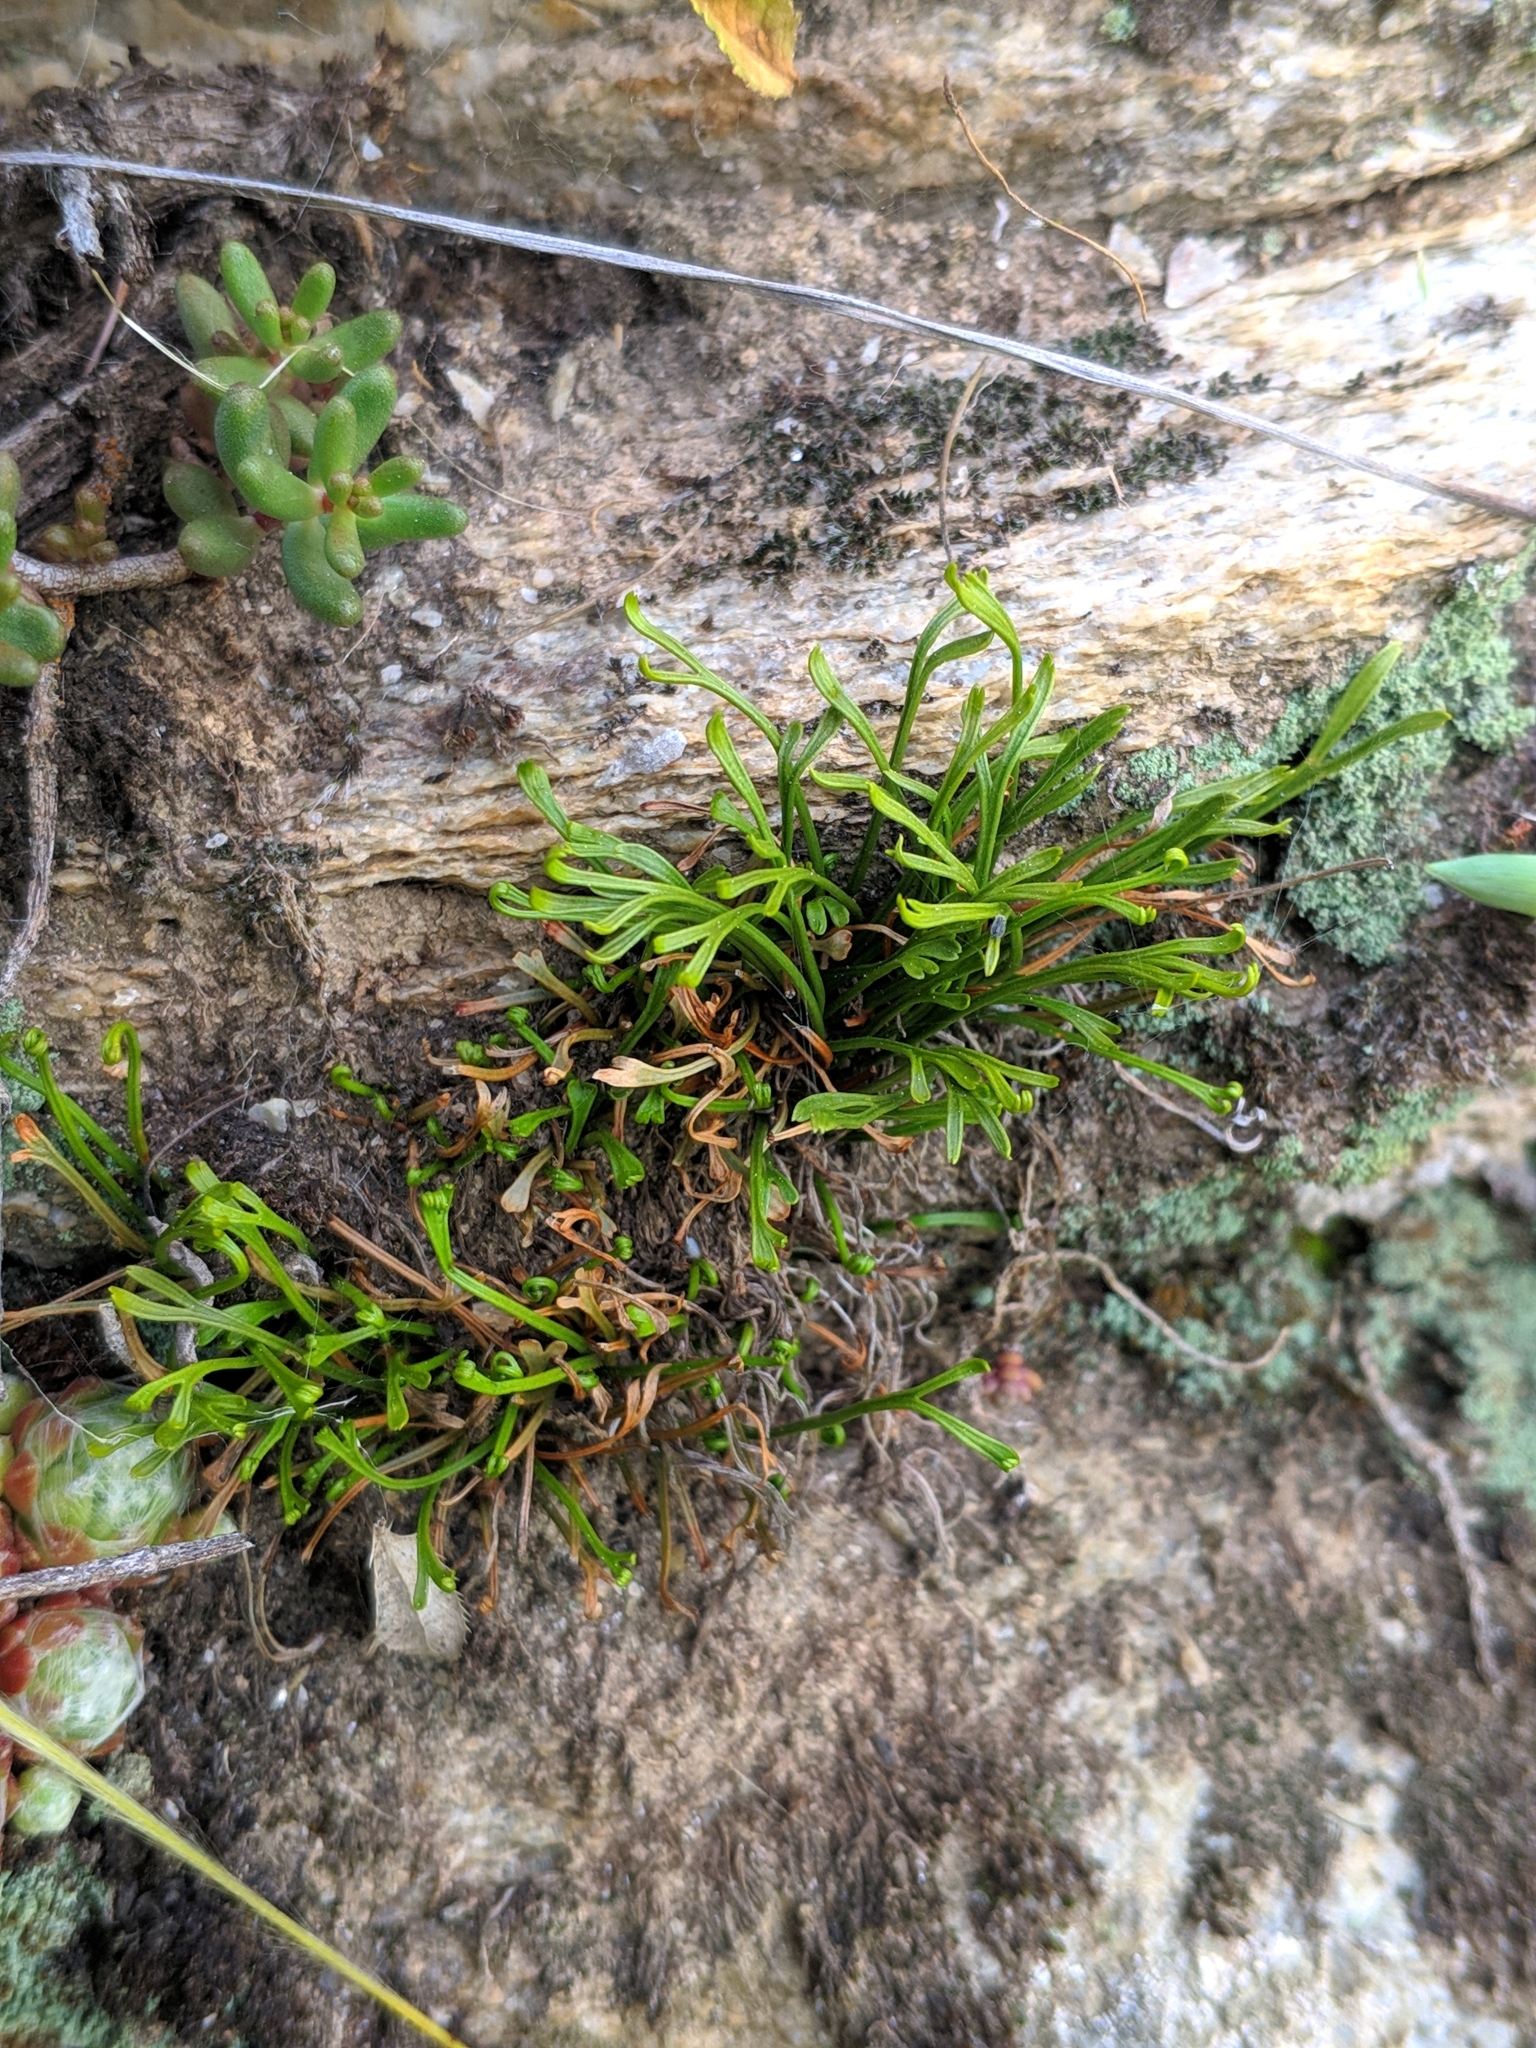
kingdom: Plantae
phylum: Tracheophyta
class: Polypodiopsida
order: Polypodiales
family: Aspleniaceae
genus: Asplenium
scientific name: Asplenium septentrionale
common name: Forked spleenwort
